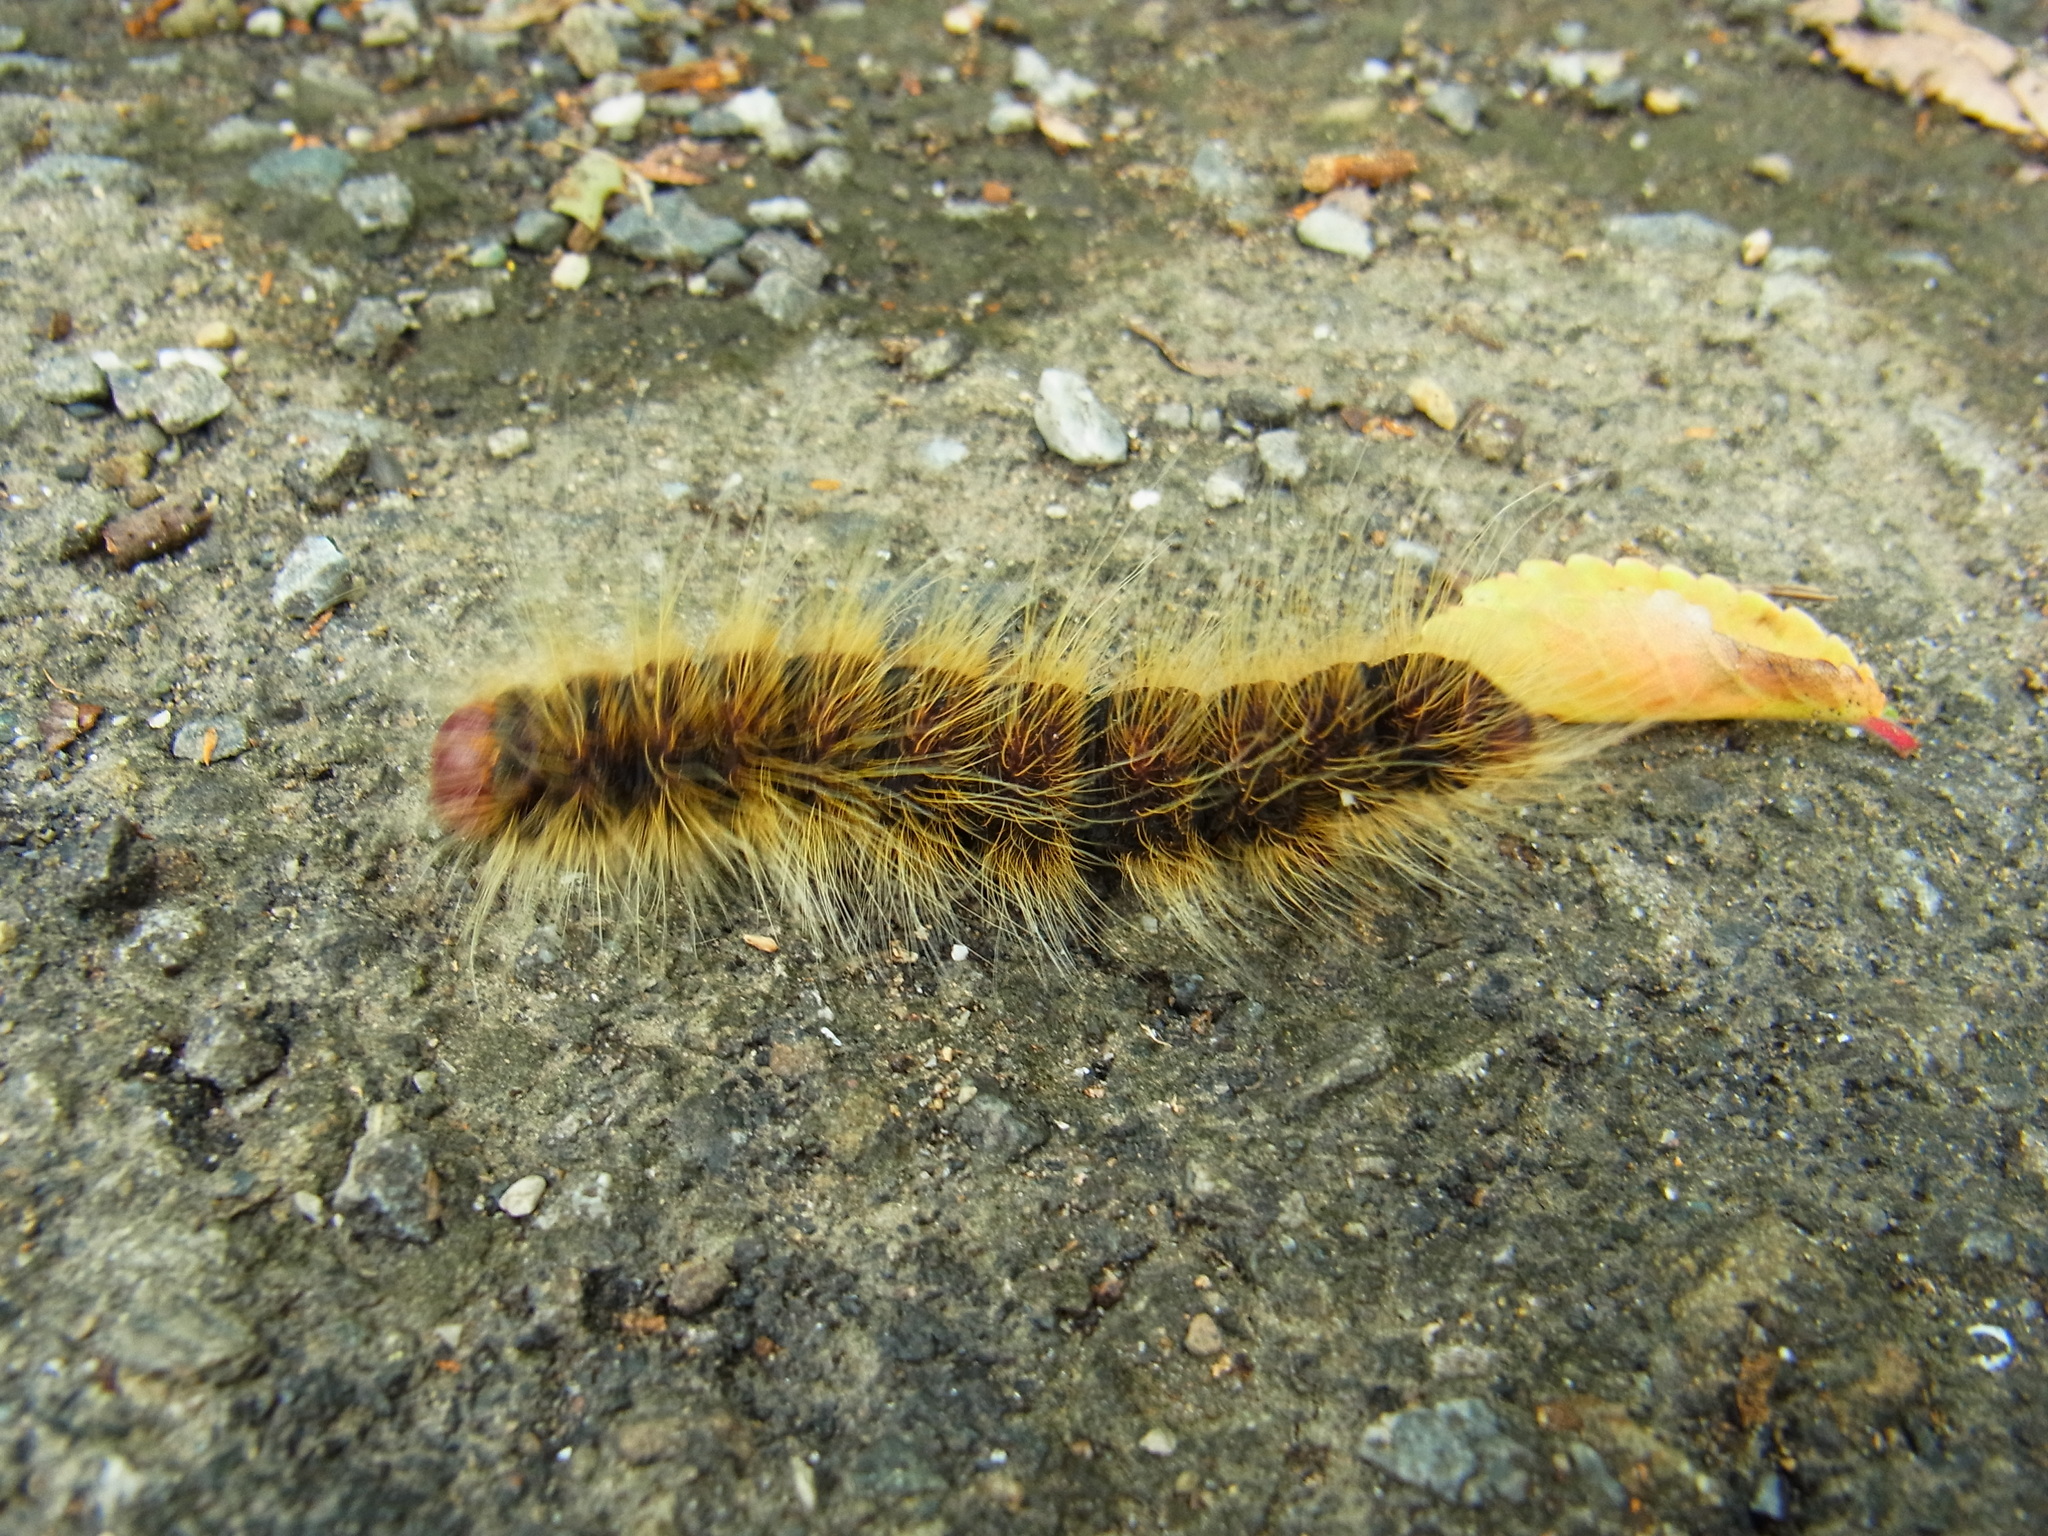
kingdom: Animalia
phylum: Arthropoda
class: Insecta
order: Lepidoptera
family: Notodontidae
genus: Phalera
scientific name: Phalera flavescens
